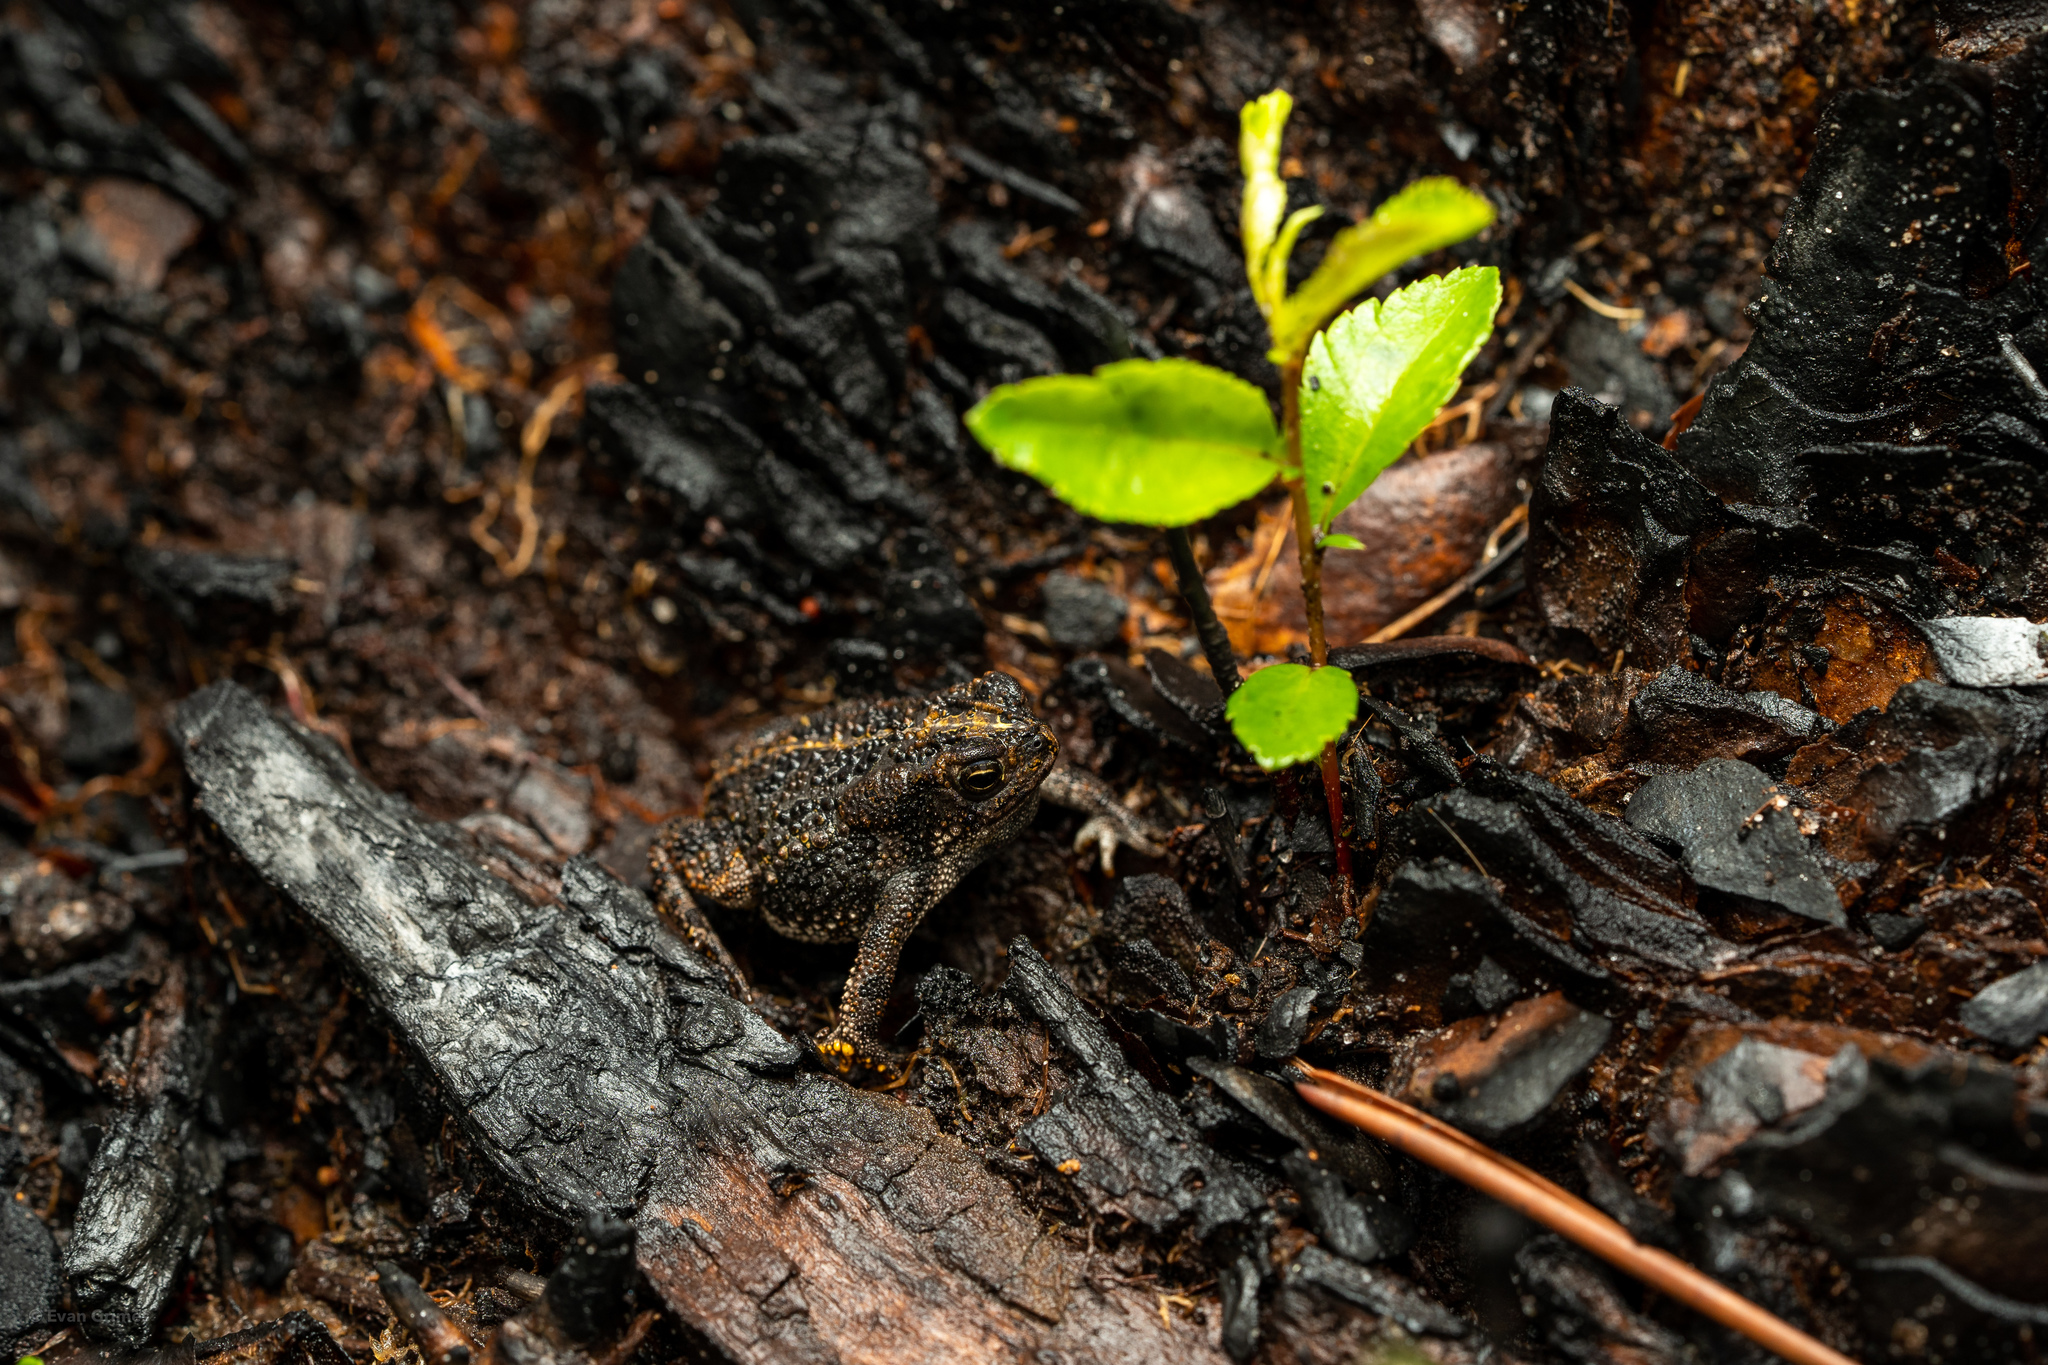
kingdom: Animalia
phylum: Chordata
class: Amphibia
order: Anura
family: Bufonidae
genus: Anaxyrus
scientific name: Anaxyrus quercicus
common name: Oak toad
